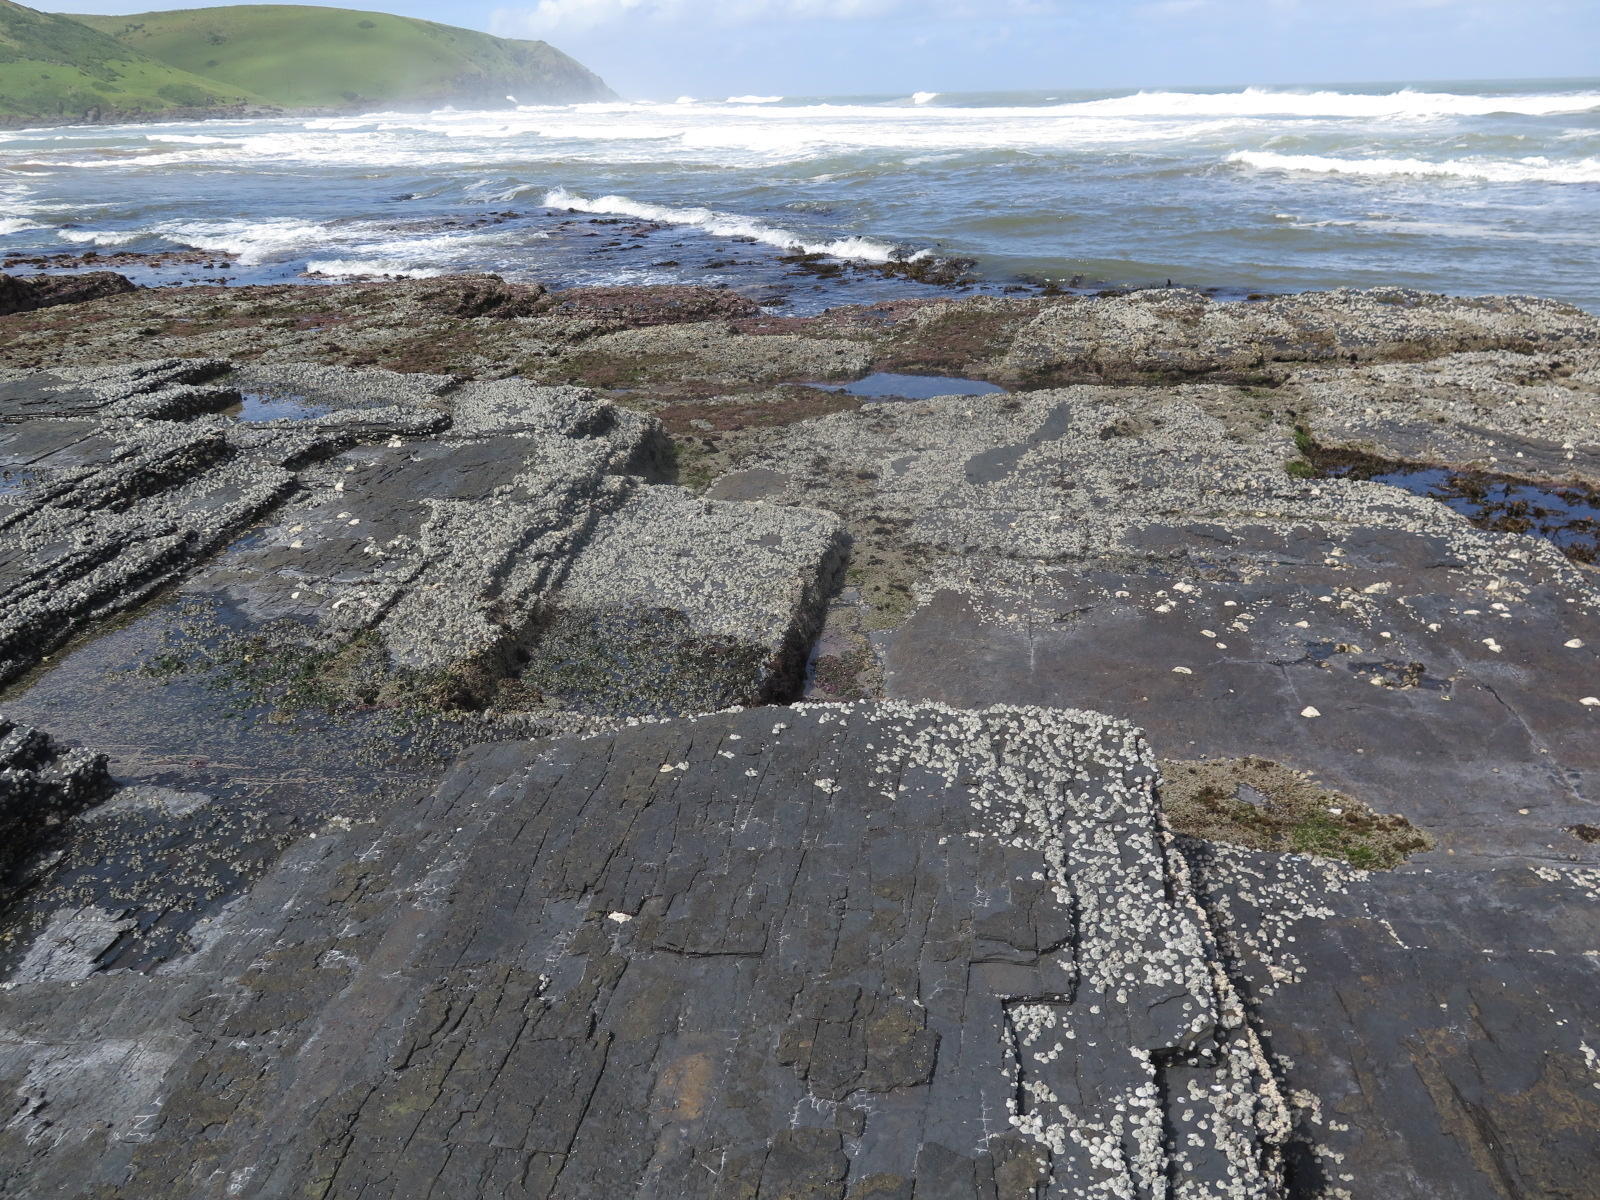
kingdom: Animalia
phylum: Arthropoda
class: Maxillopoda
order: Sessilia
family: Tetraclitidae
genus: Tetraclita
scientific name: Tetraclita serrata
